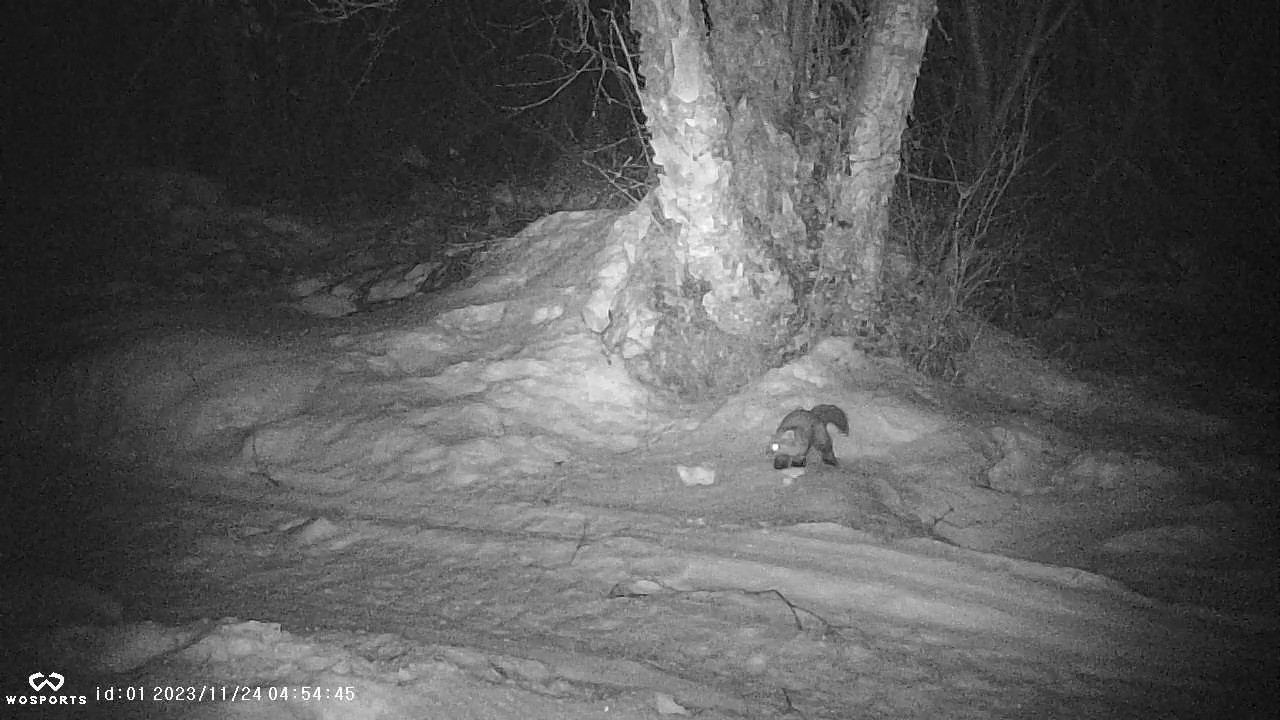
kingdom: Animalia
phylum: Chordata
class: Mammalia
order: Carnivora
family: Mustelidae
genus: Martes
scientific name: Martes americana
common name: American marten
